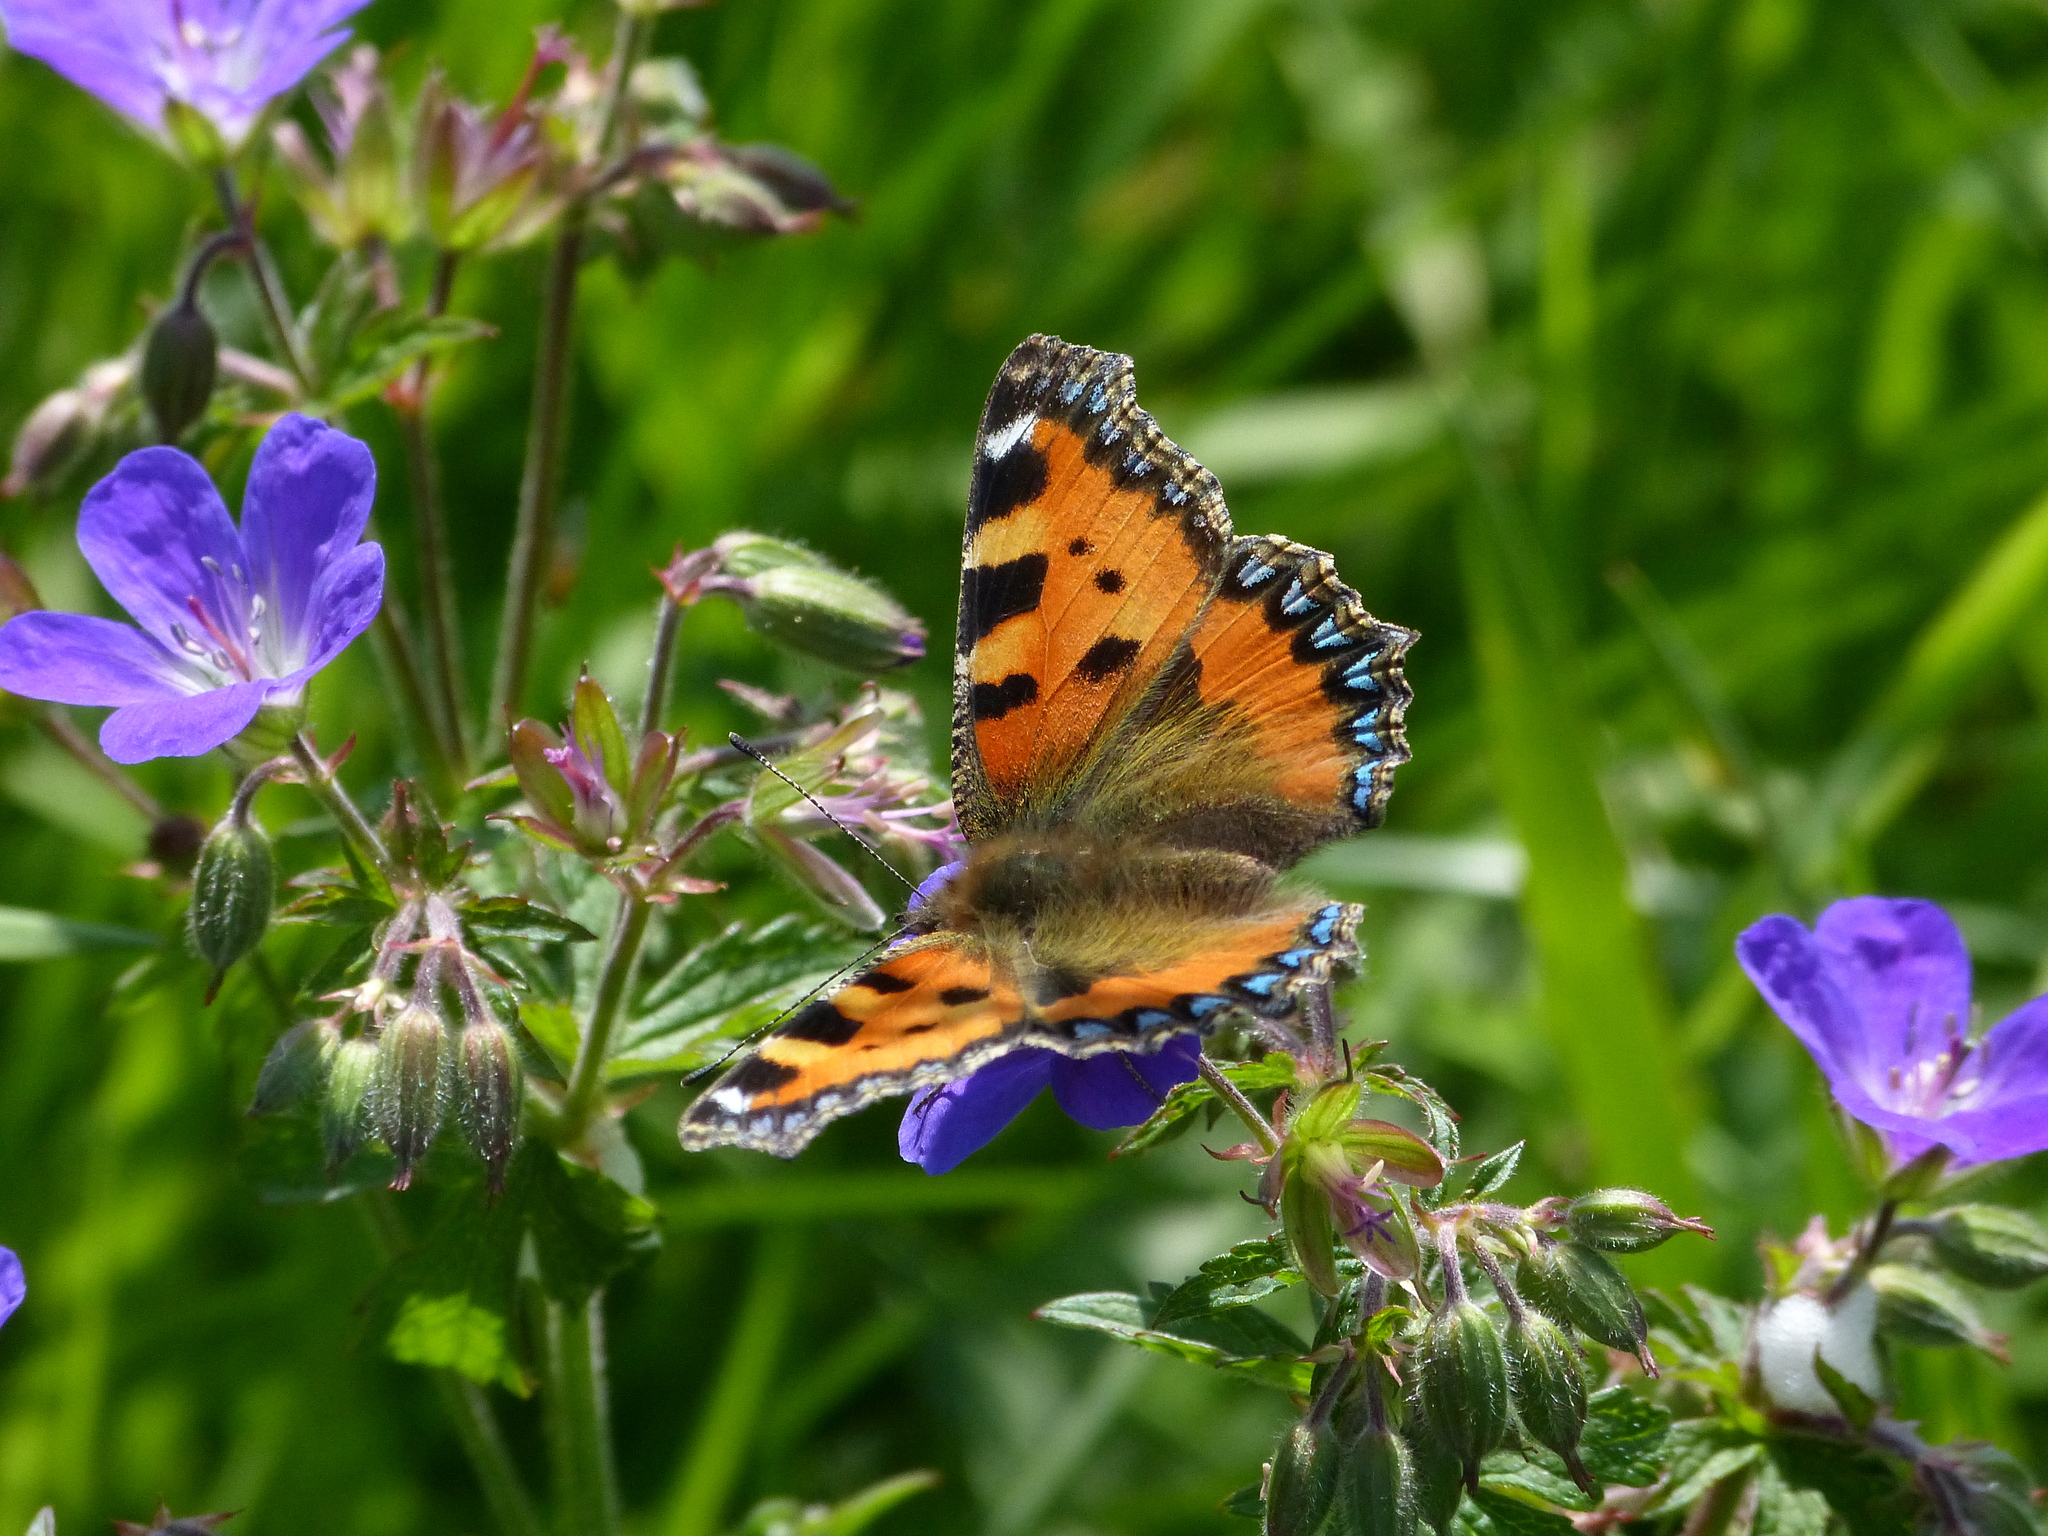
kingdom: Animalia
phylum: Arthropoda
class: Insecta
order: Lepidoptera
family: Nymphalidae
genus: Aglais
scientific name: Aglais urticae
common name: Small tortoiseshell
